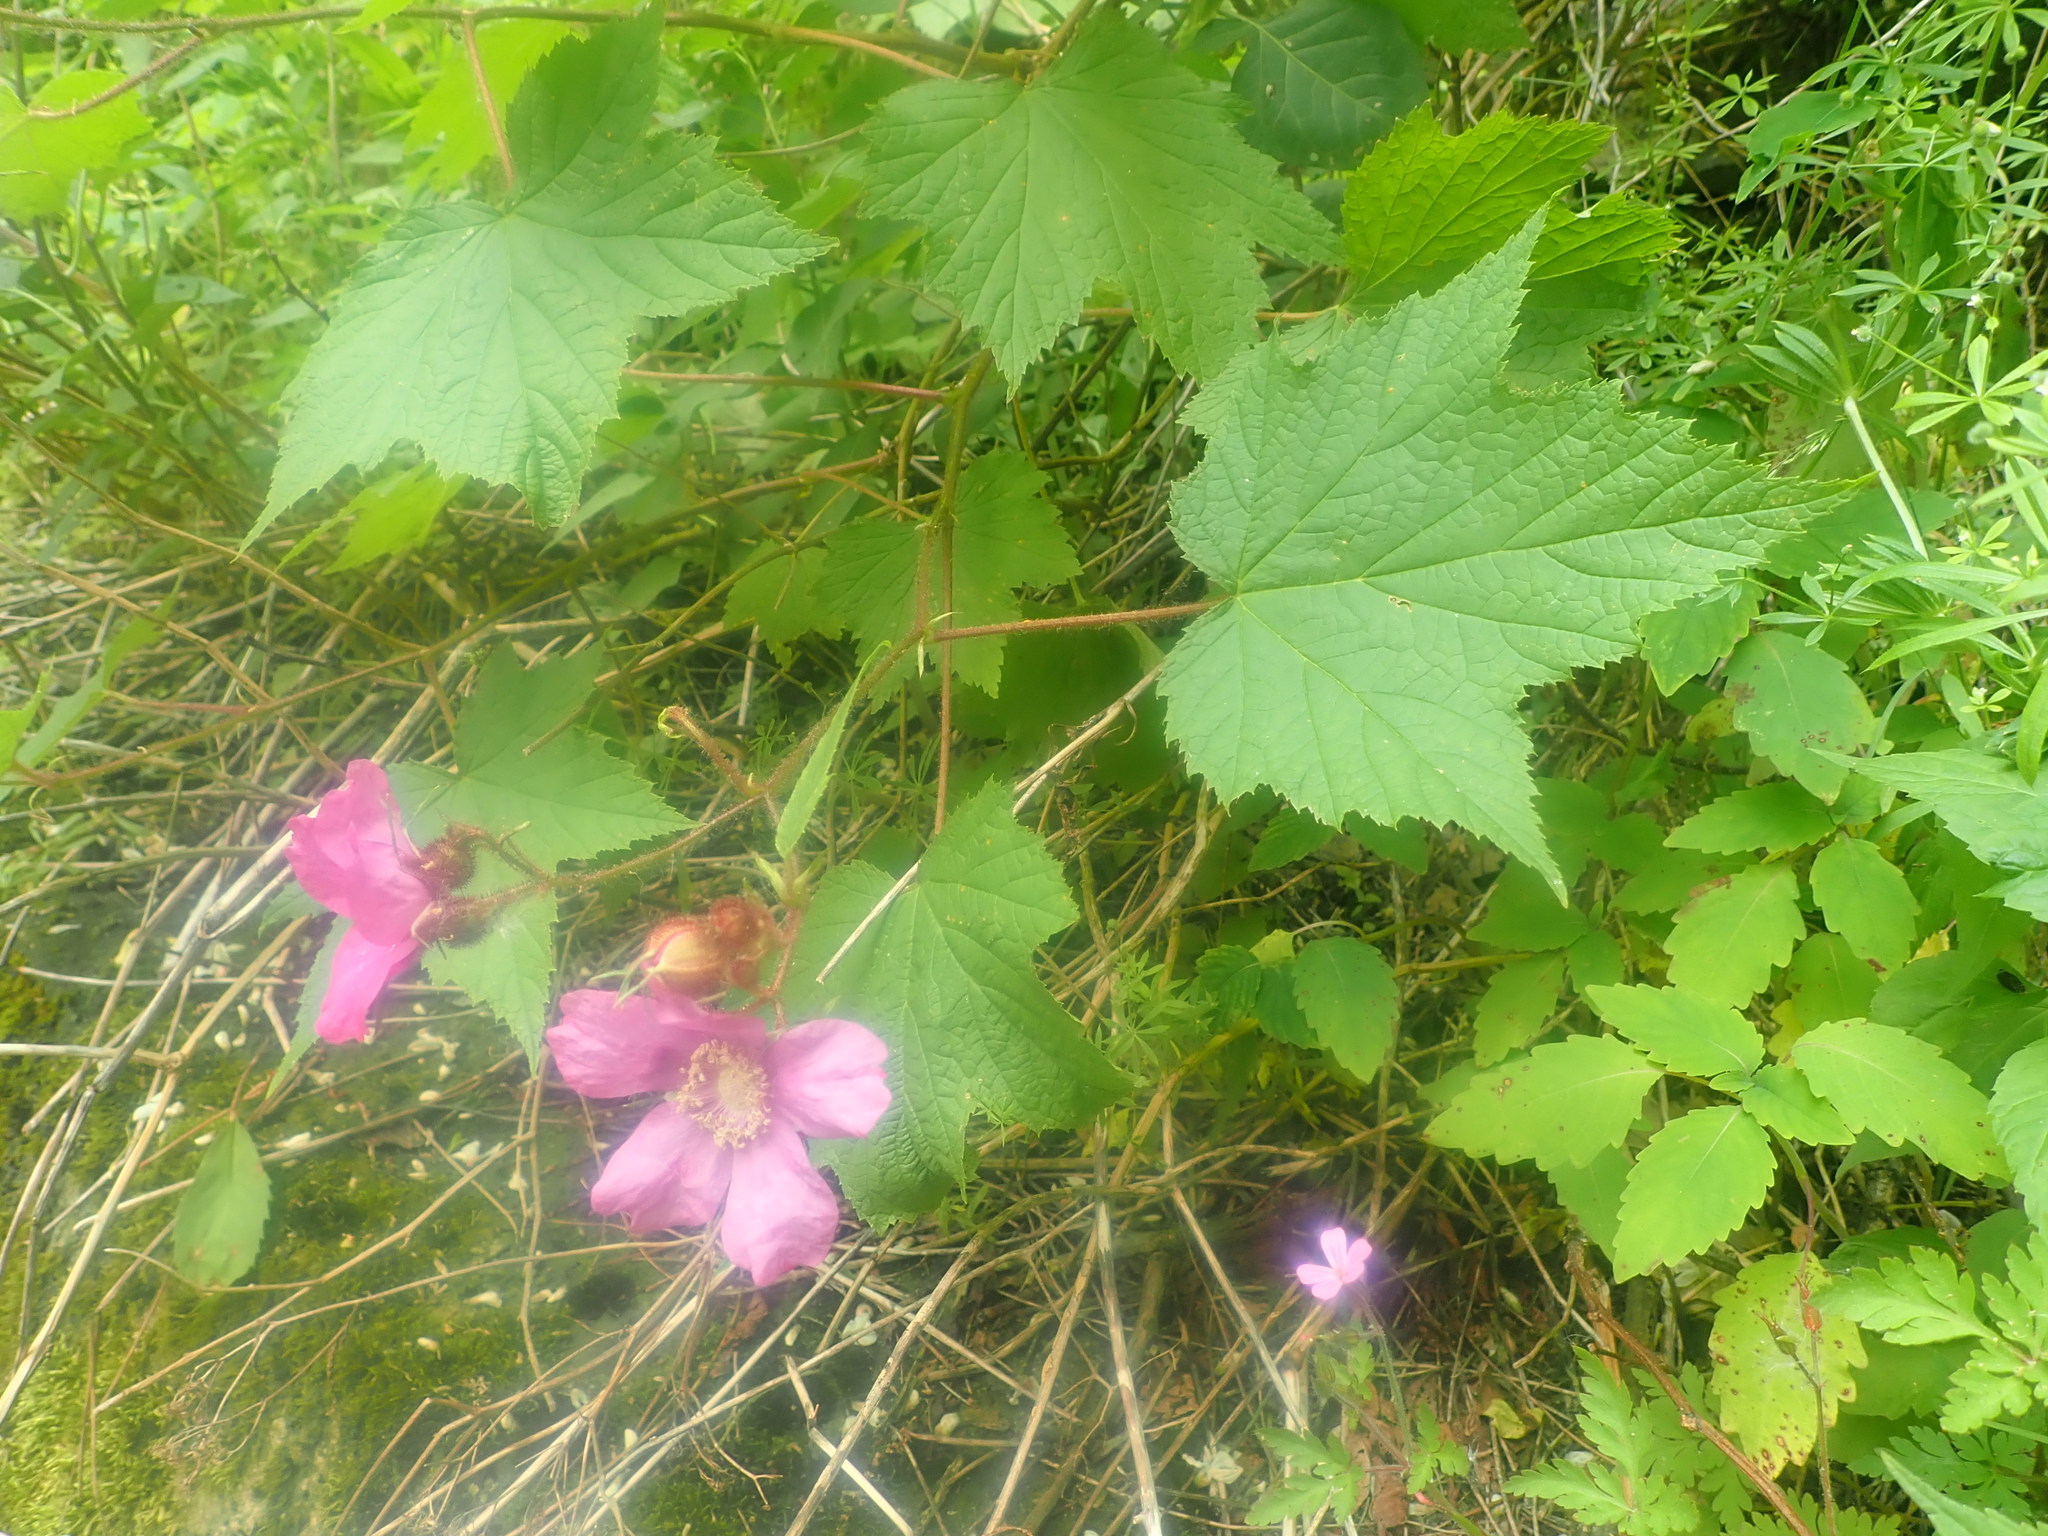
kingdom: Plantae
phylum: Tracheophyta
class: Magnoliopsida
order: Rosales
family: Rosaceae
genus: Rubus
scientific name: Rubus odoratus
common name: Purple-flowered raspberry
